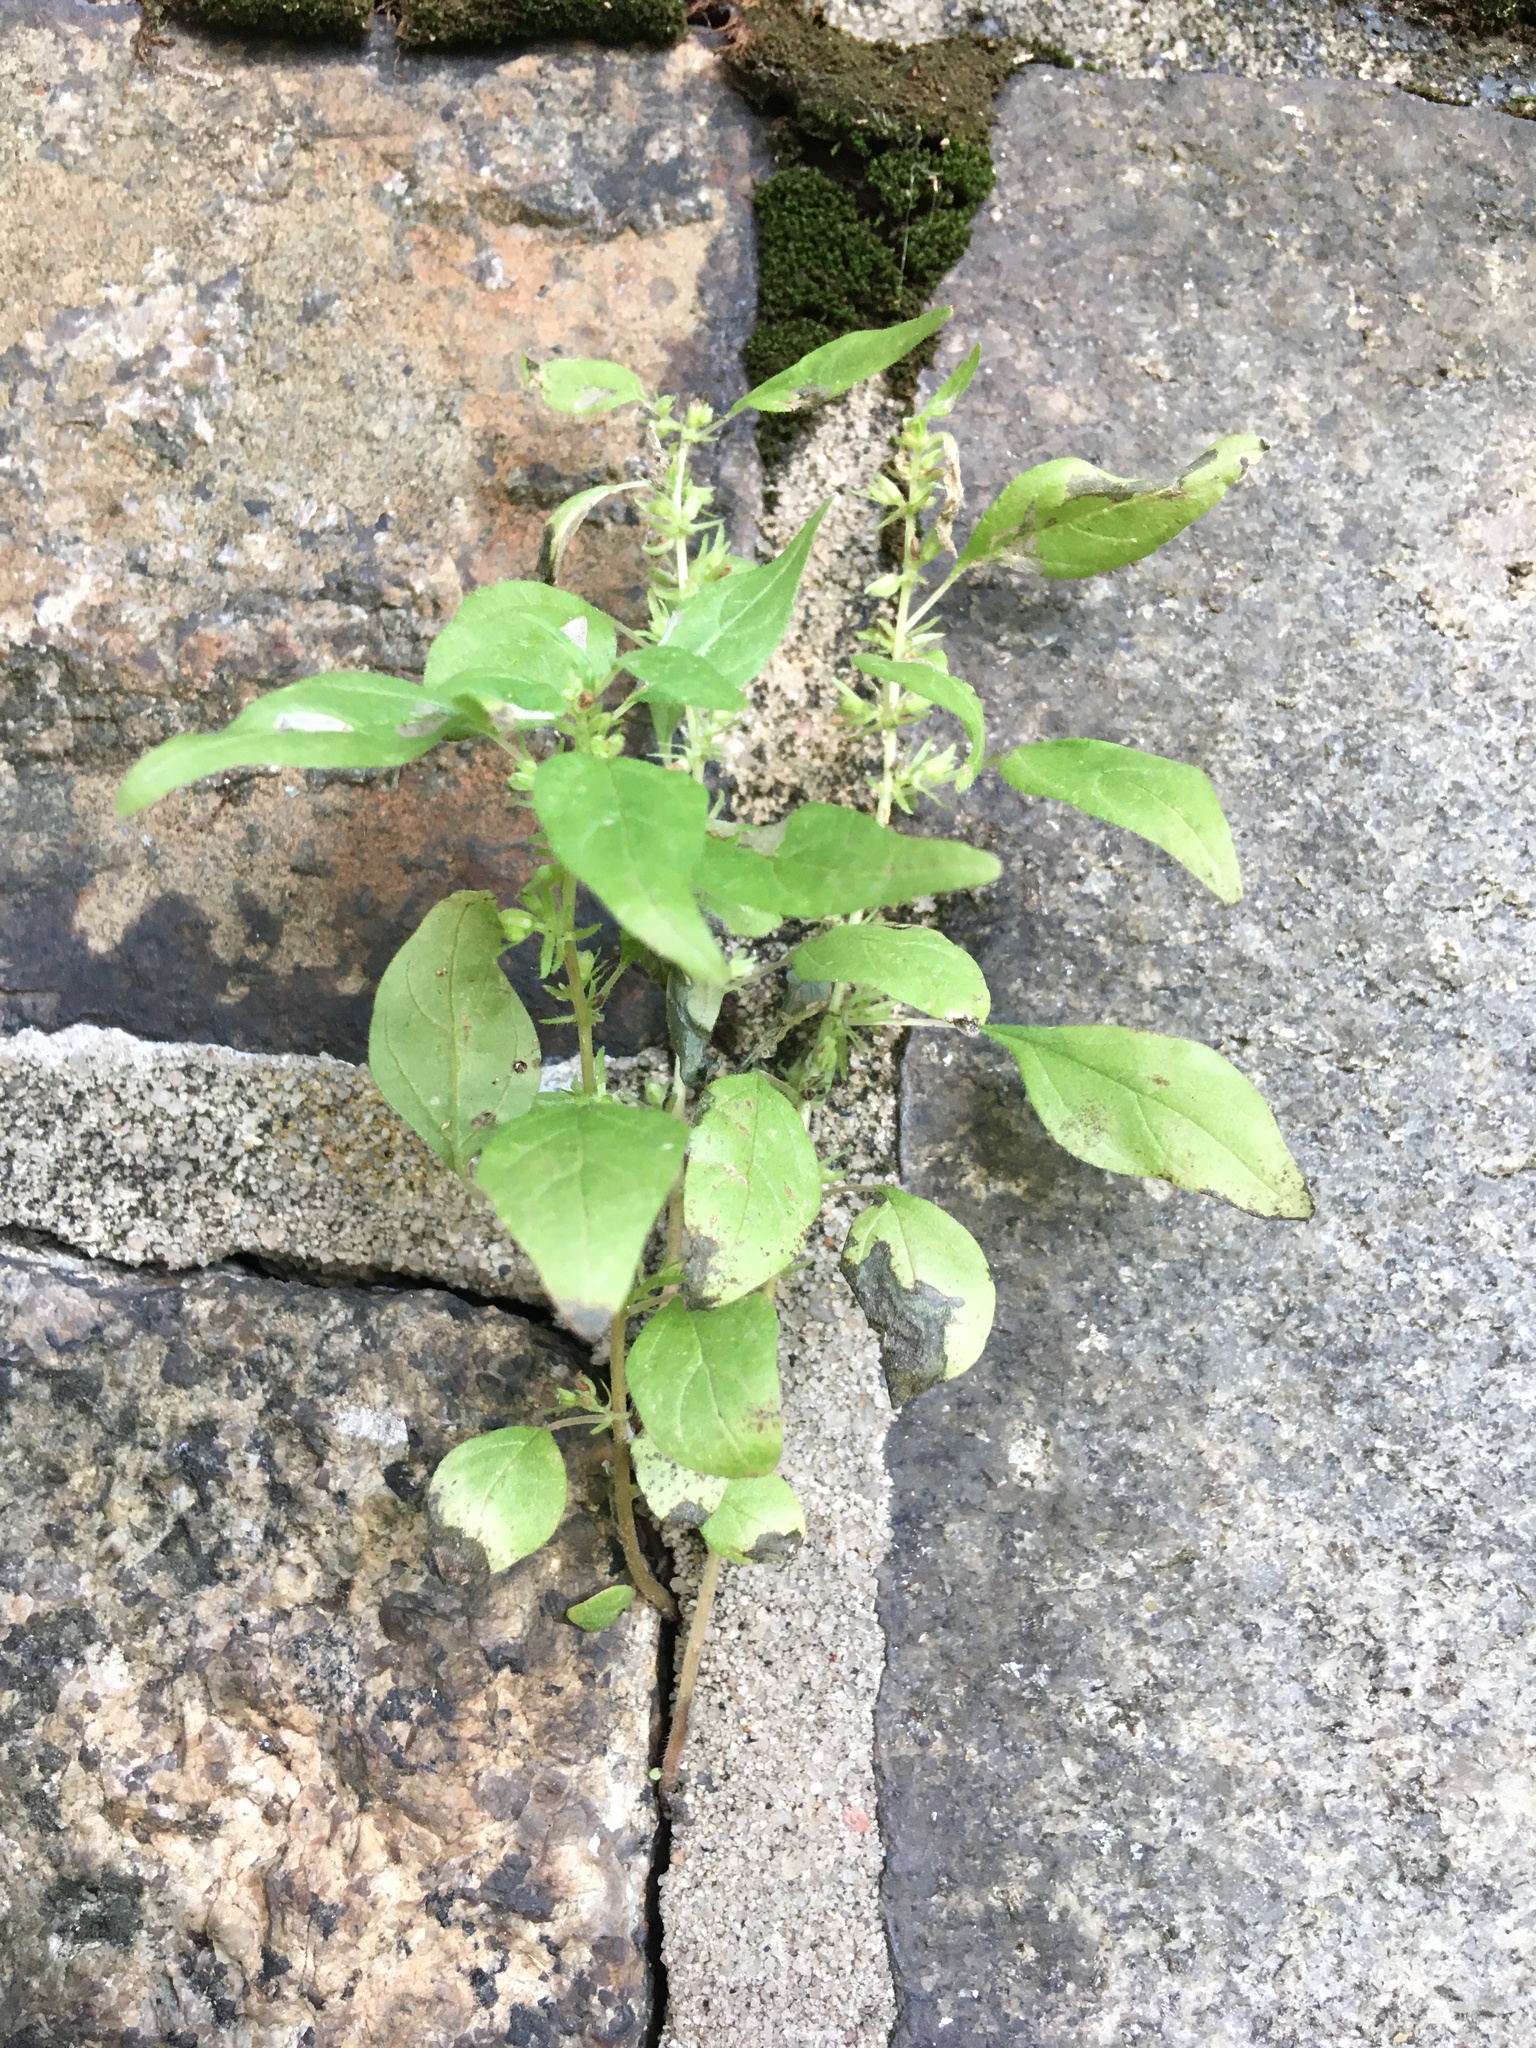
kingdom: Plantae
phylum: Tracheophyta
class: Magnoliopsida
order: Rosales
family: Urticaceae
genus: Parietaria
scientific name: Parietaria pensylvanica
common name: Pennsylvania pellitory
